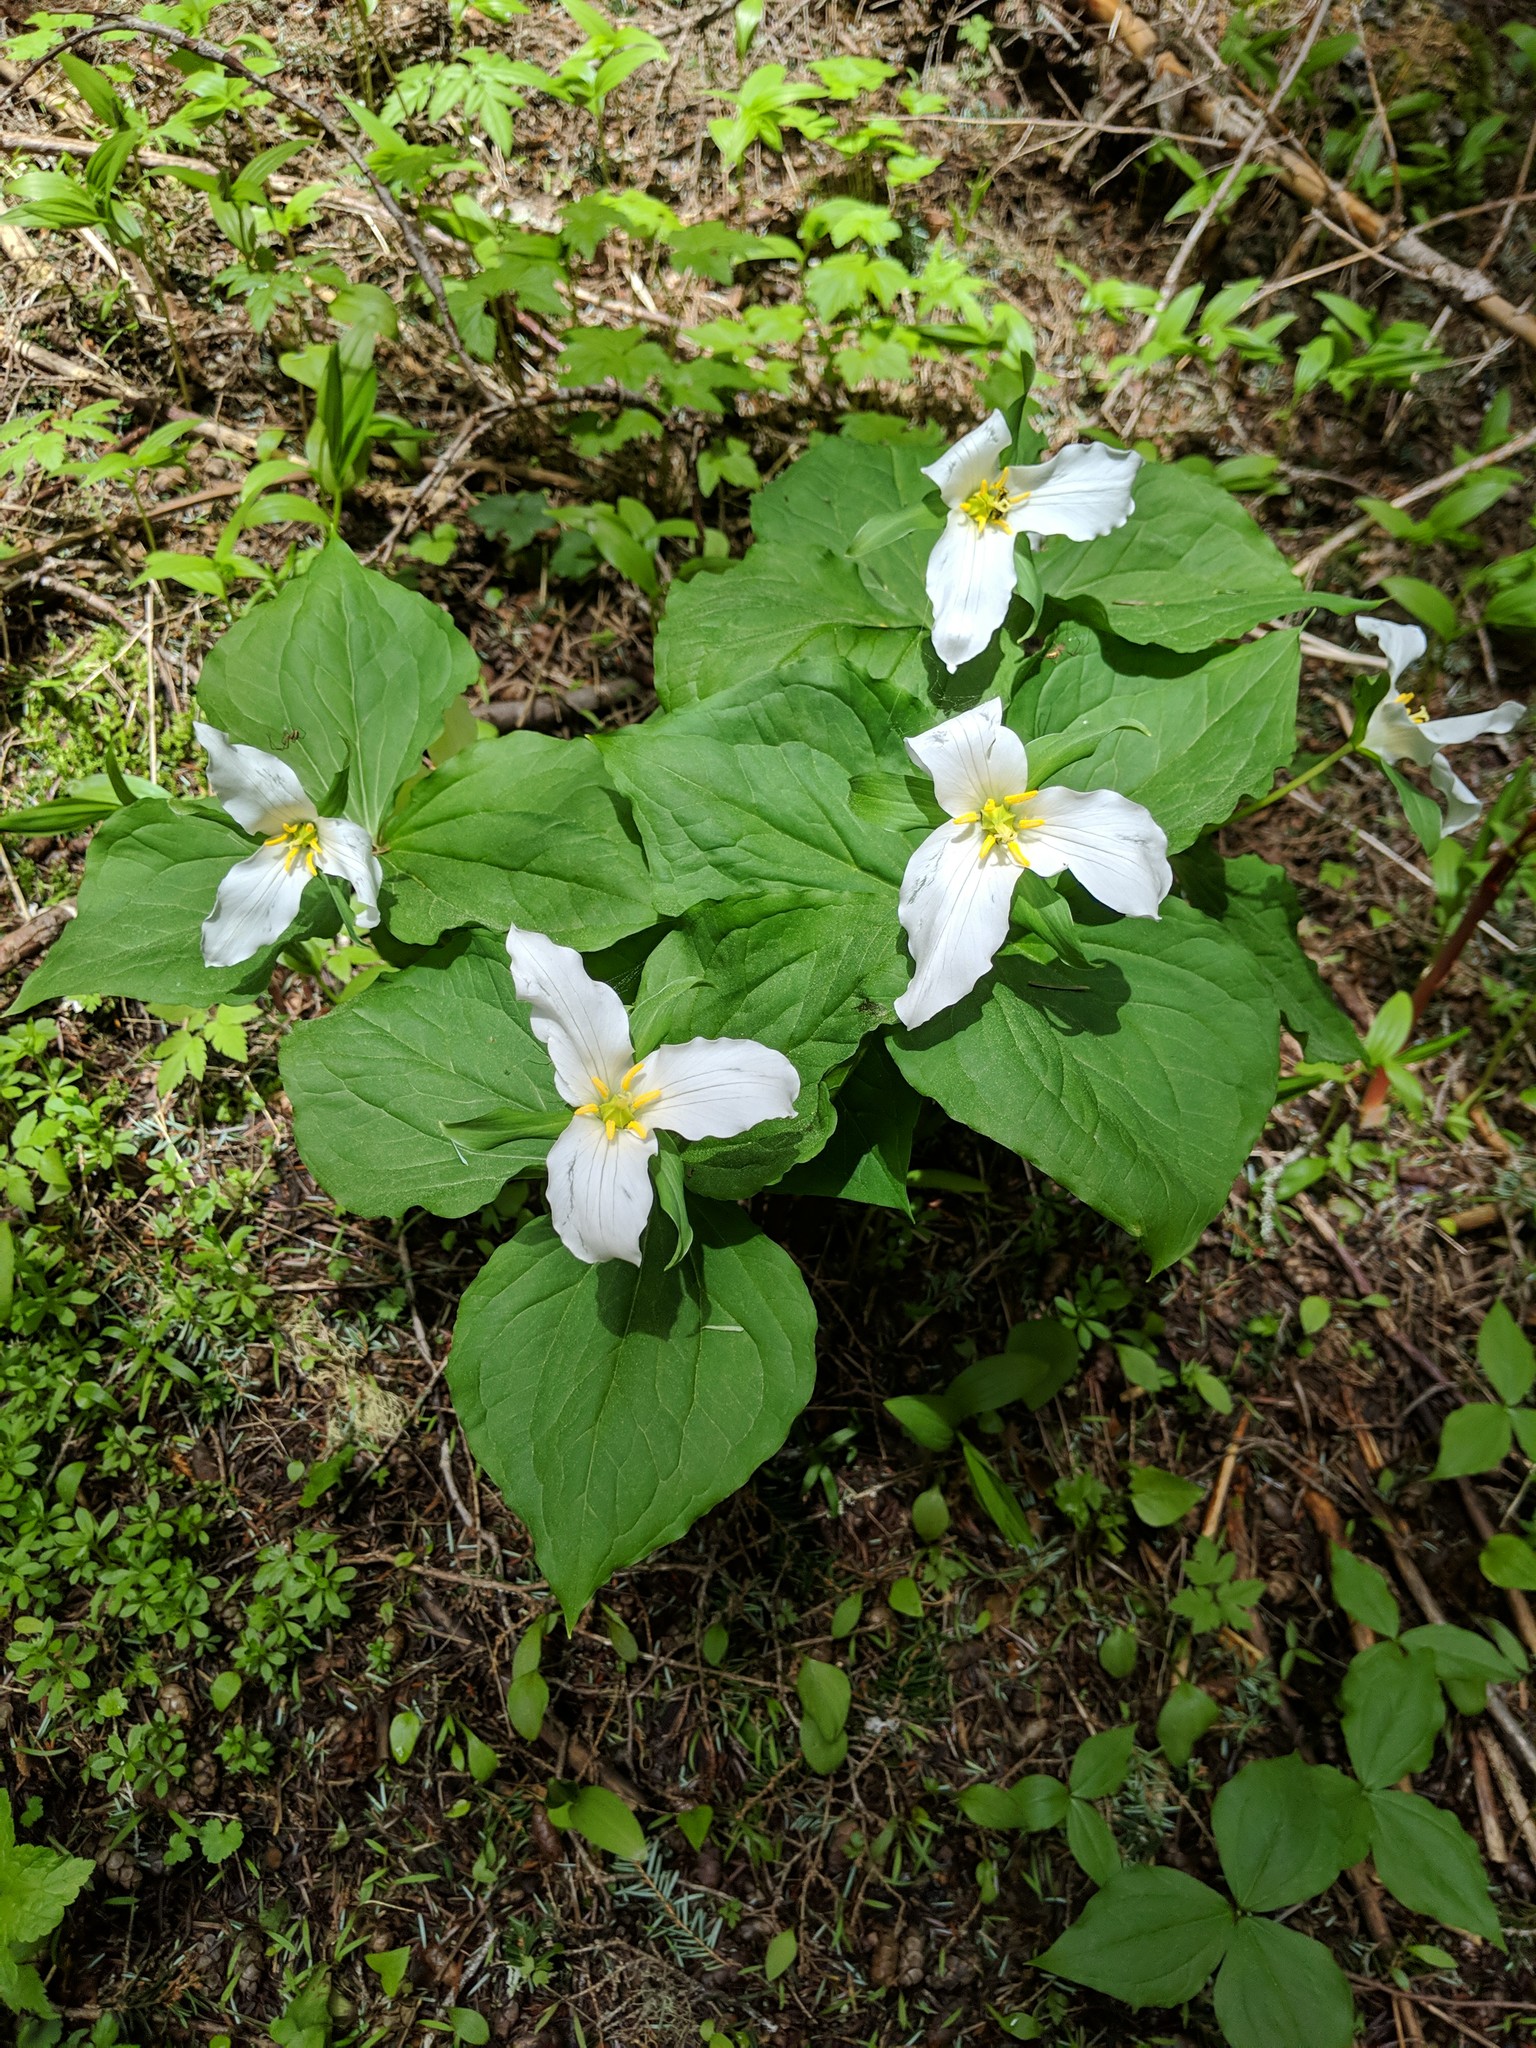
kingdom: Plantae
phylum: Tracheophyta
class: Liliopsida
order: Liliales
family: Melanthiaceae
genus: Trillium
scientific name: Trillium ovatum
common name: Pacific trillium
